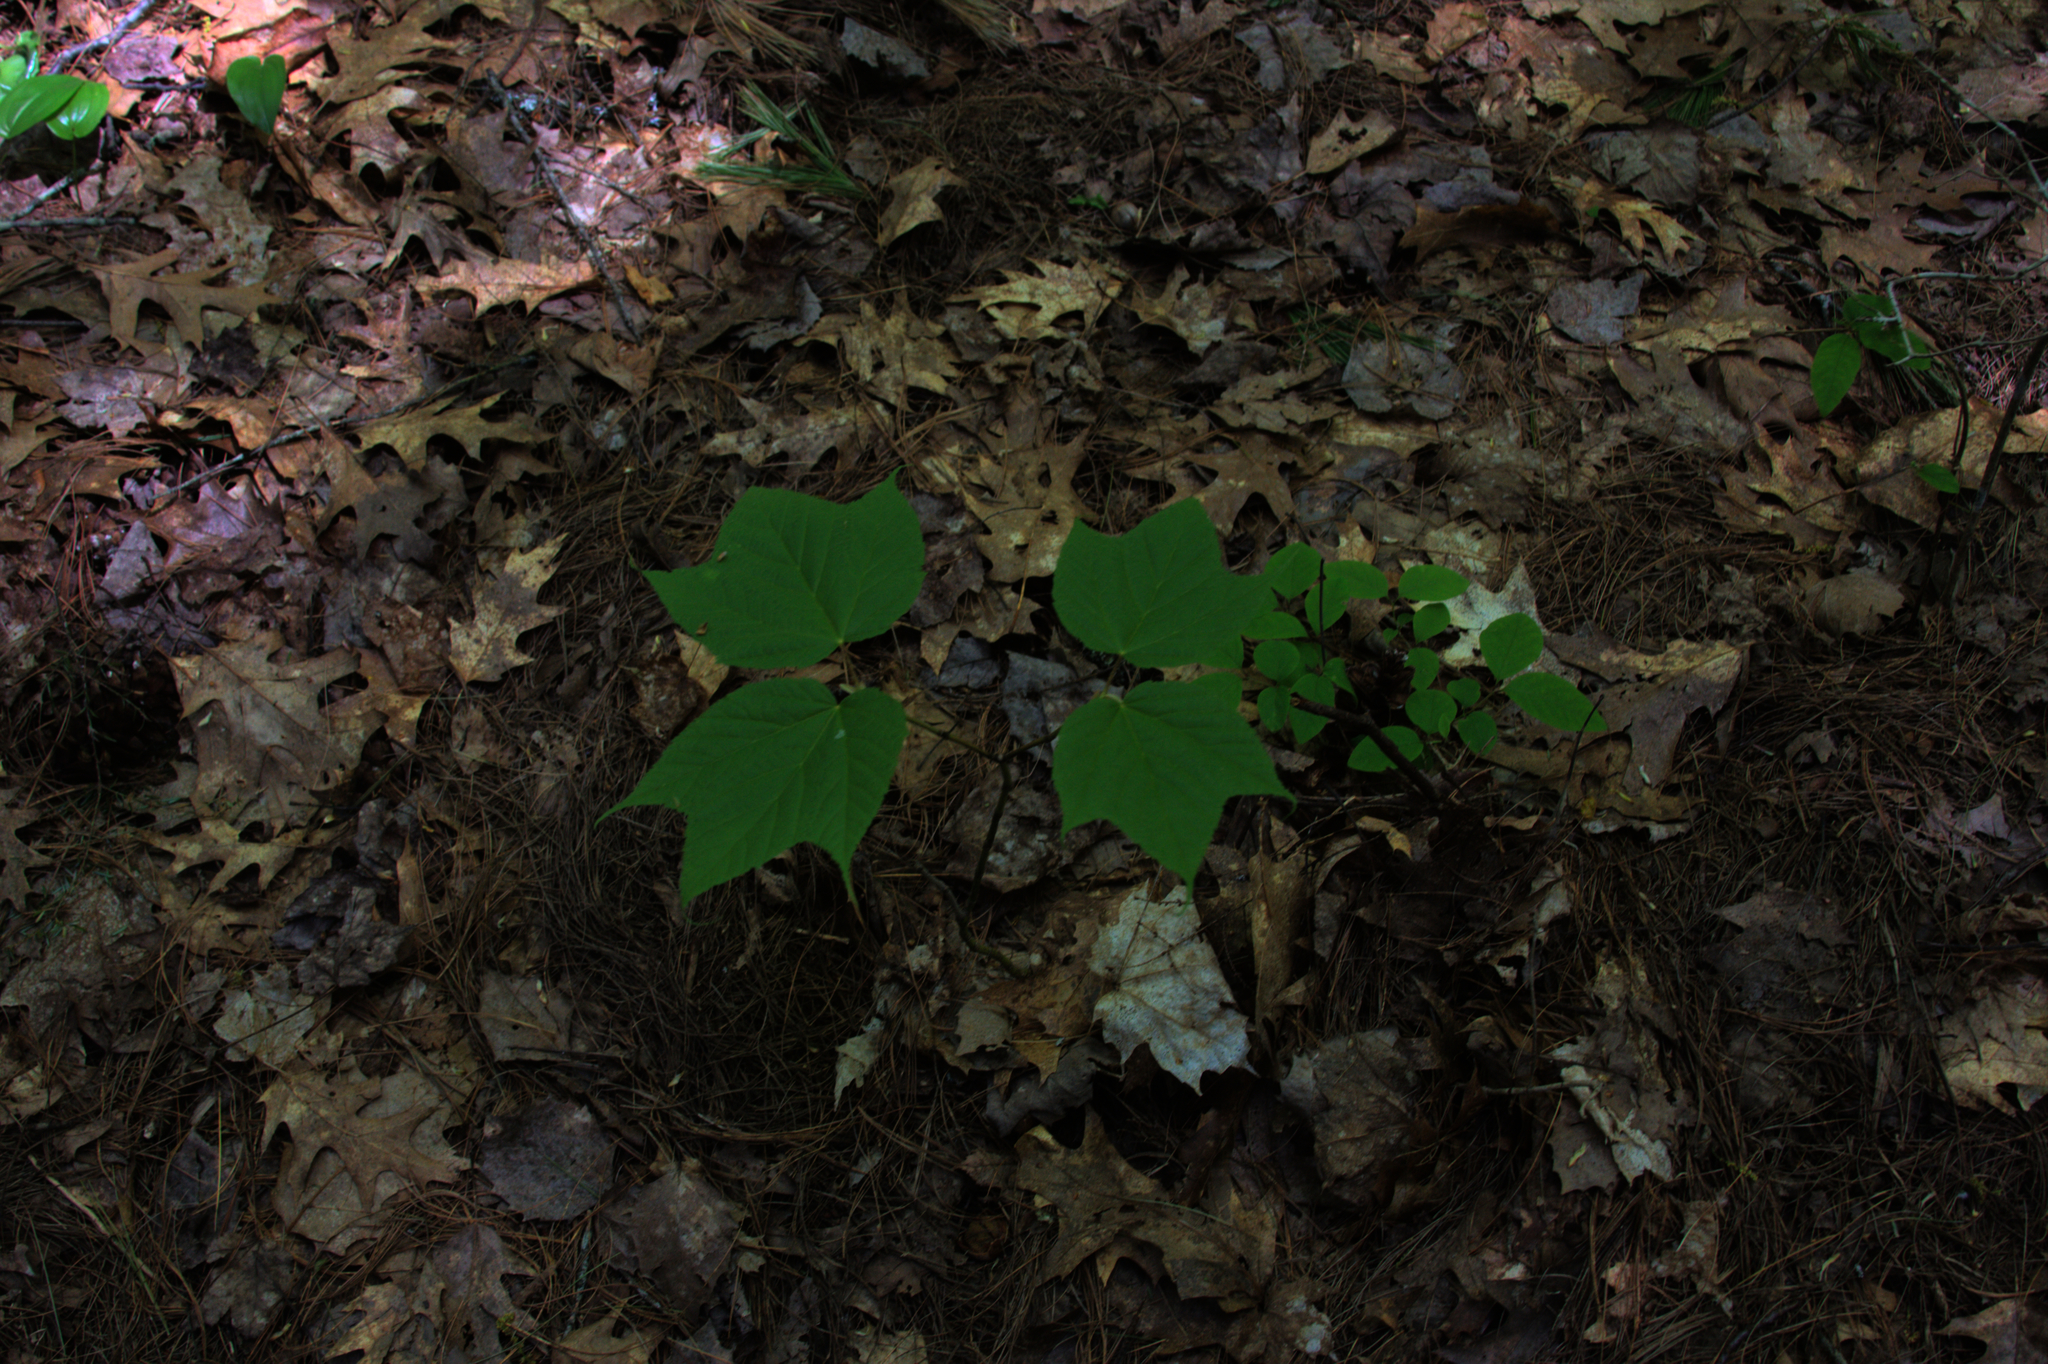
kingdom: Plantae
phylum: Tracheophyta
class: Magnoliopsida
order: Sapindales
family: Sapindaceae
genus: Acer
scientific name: Acer pensylvanicum
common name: Moosewood
